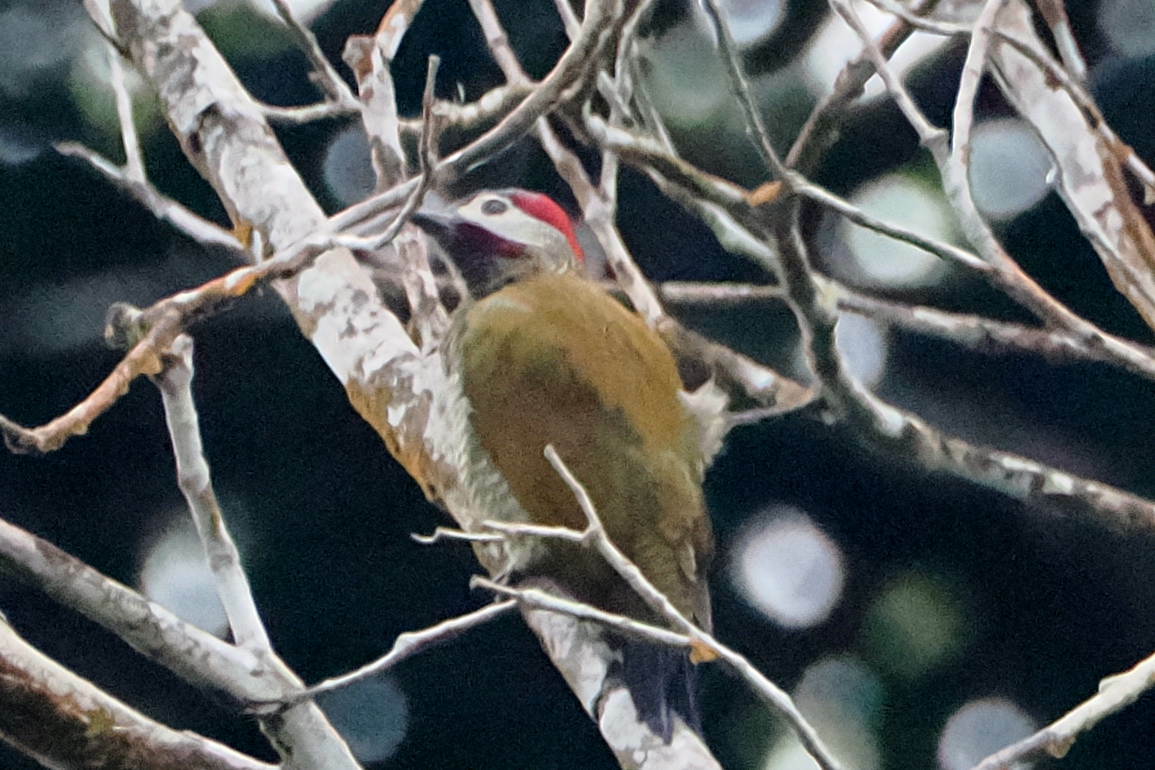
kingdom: Animalia
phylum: Chordata
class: Aves
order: Piciformes
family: Picidae
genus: Colaptes
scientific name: Colaptes rubiginosus
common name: Golden-olive woodpecker
